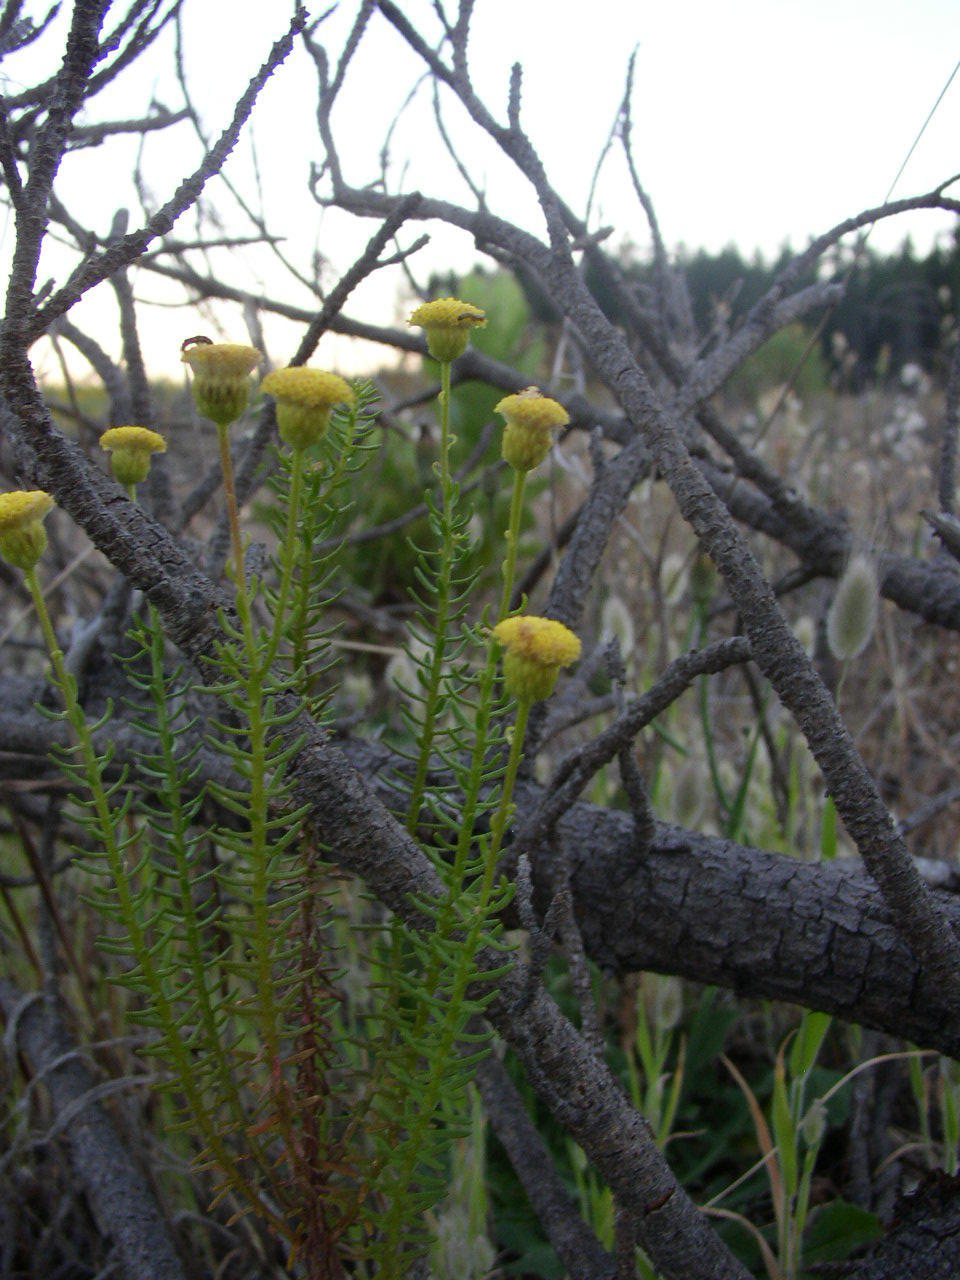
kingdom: Plantae
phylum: Tracheophyta
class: Magnoliopsida
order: Asterales
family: Asteraceae
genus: Chrysocoma
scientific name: Chrysocoma cernua
